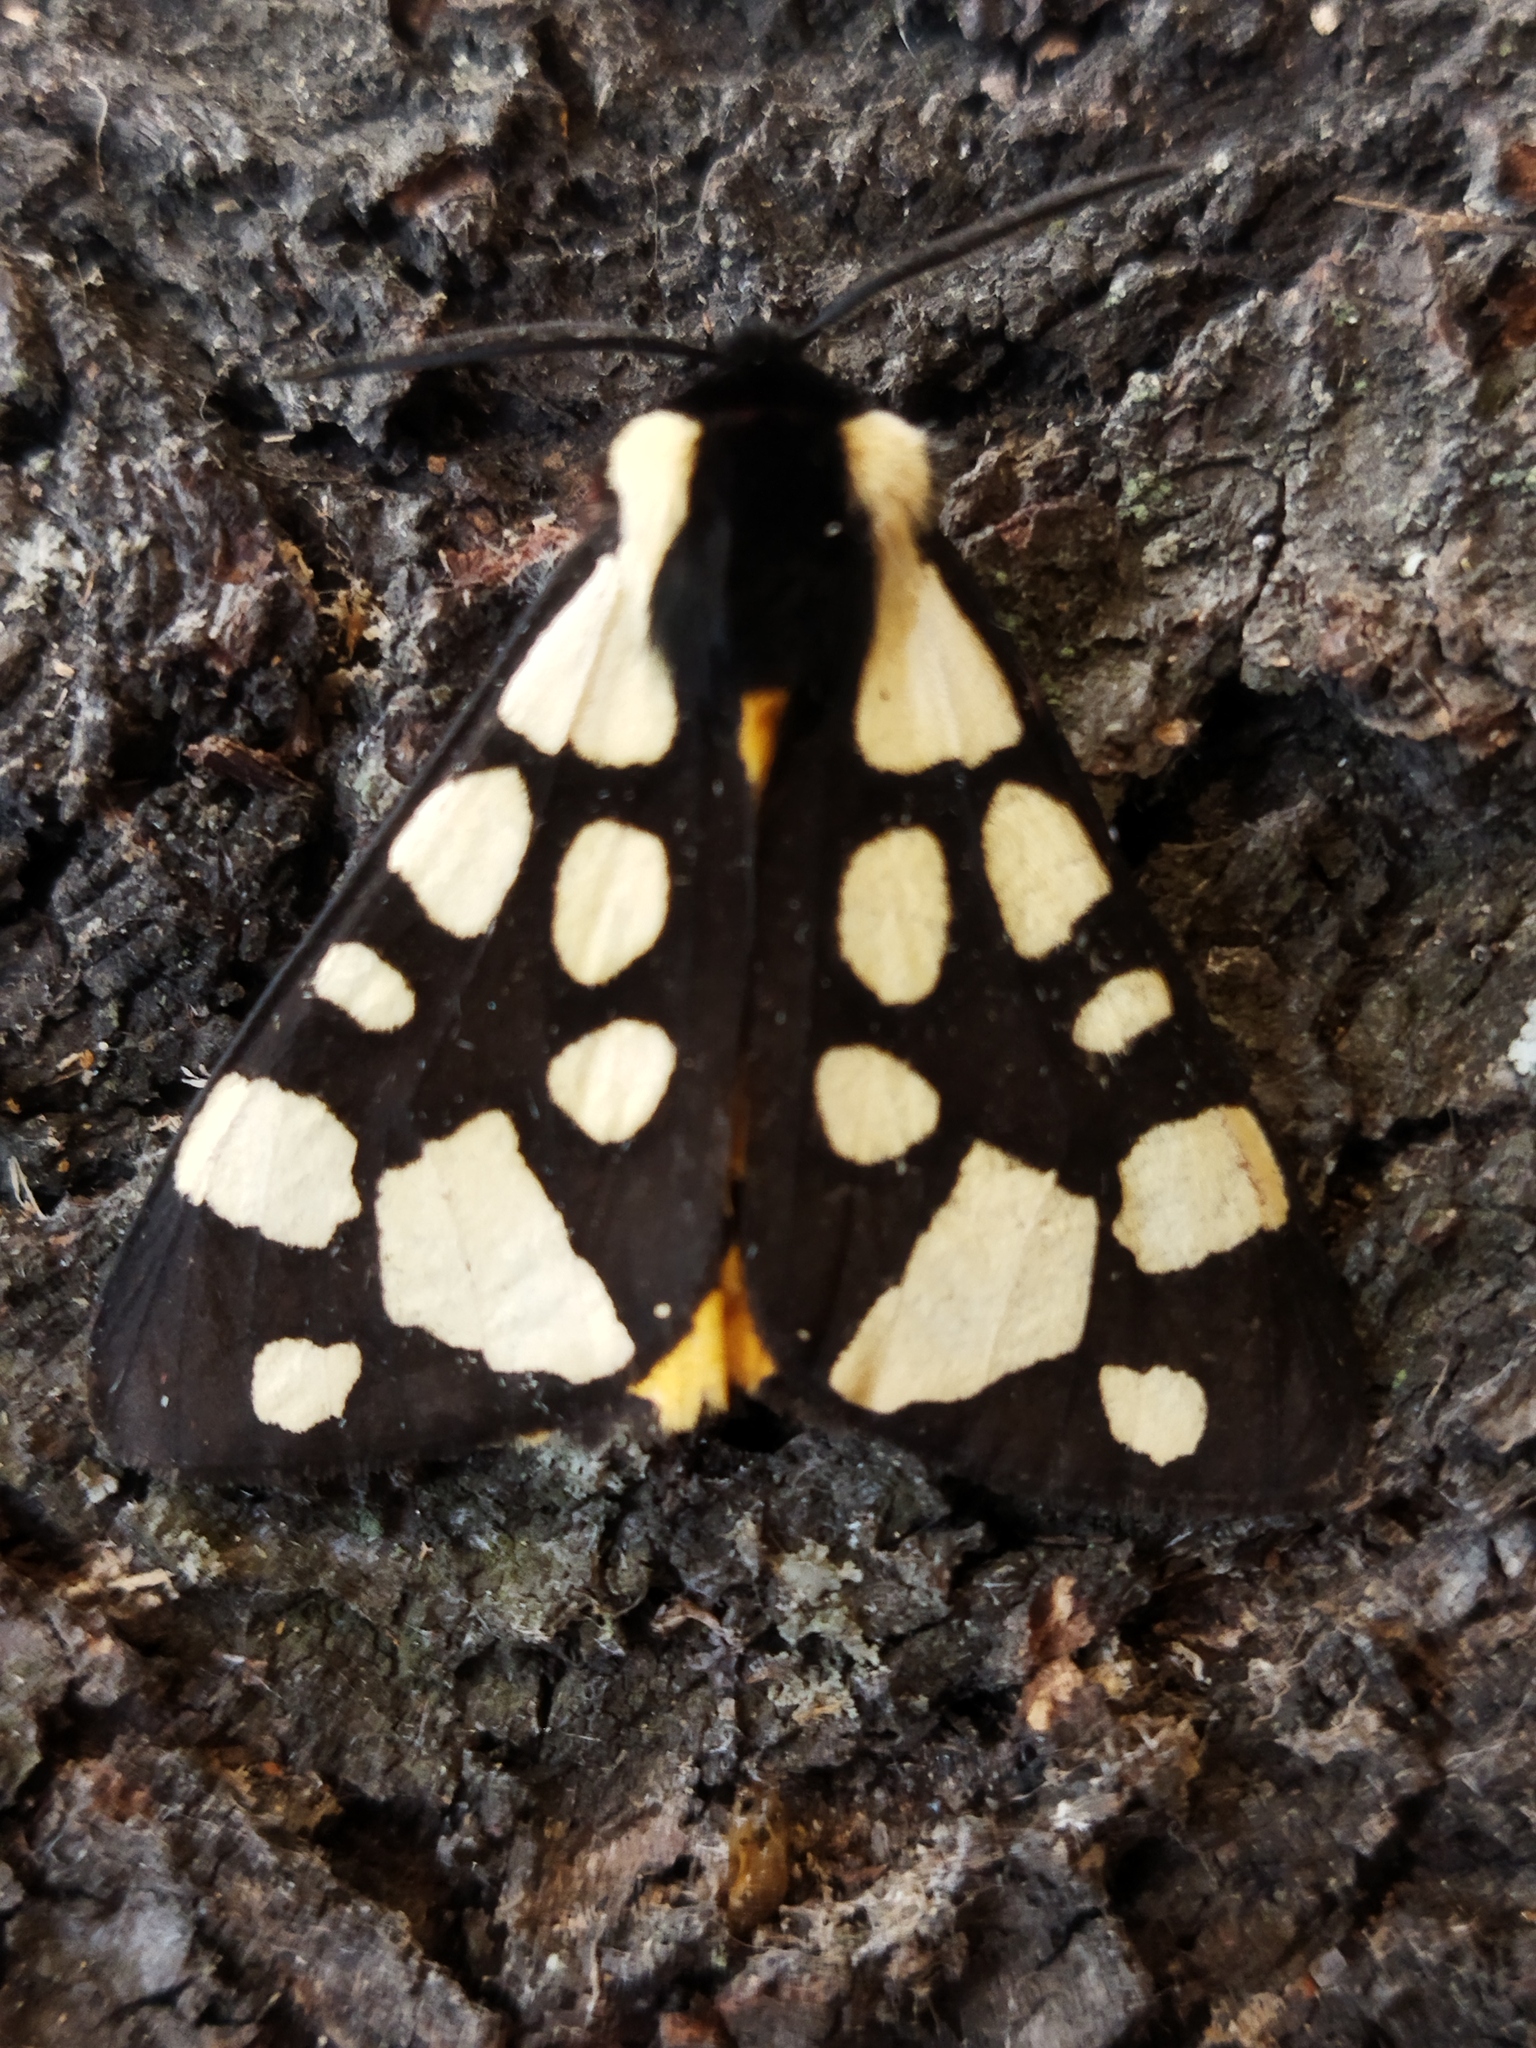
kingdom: Animalia
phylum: Arthropoda
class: Insecta
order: Lepidoptera
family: Erebidae
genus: Epicallia
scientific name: Epicallia villica
